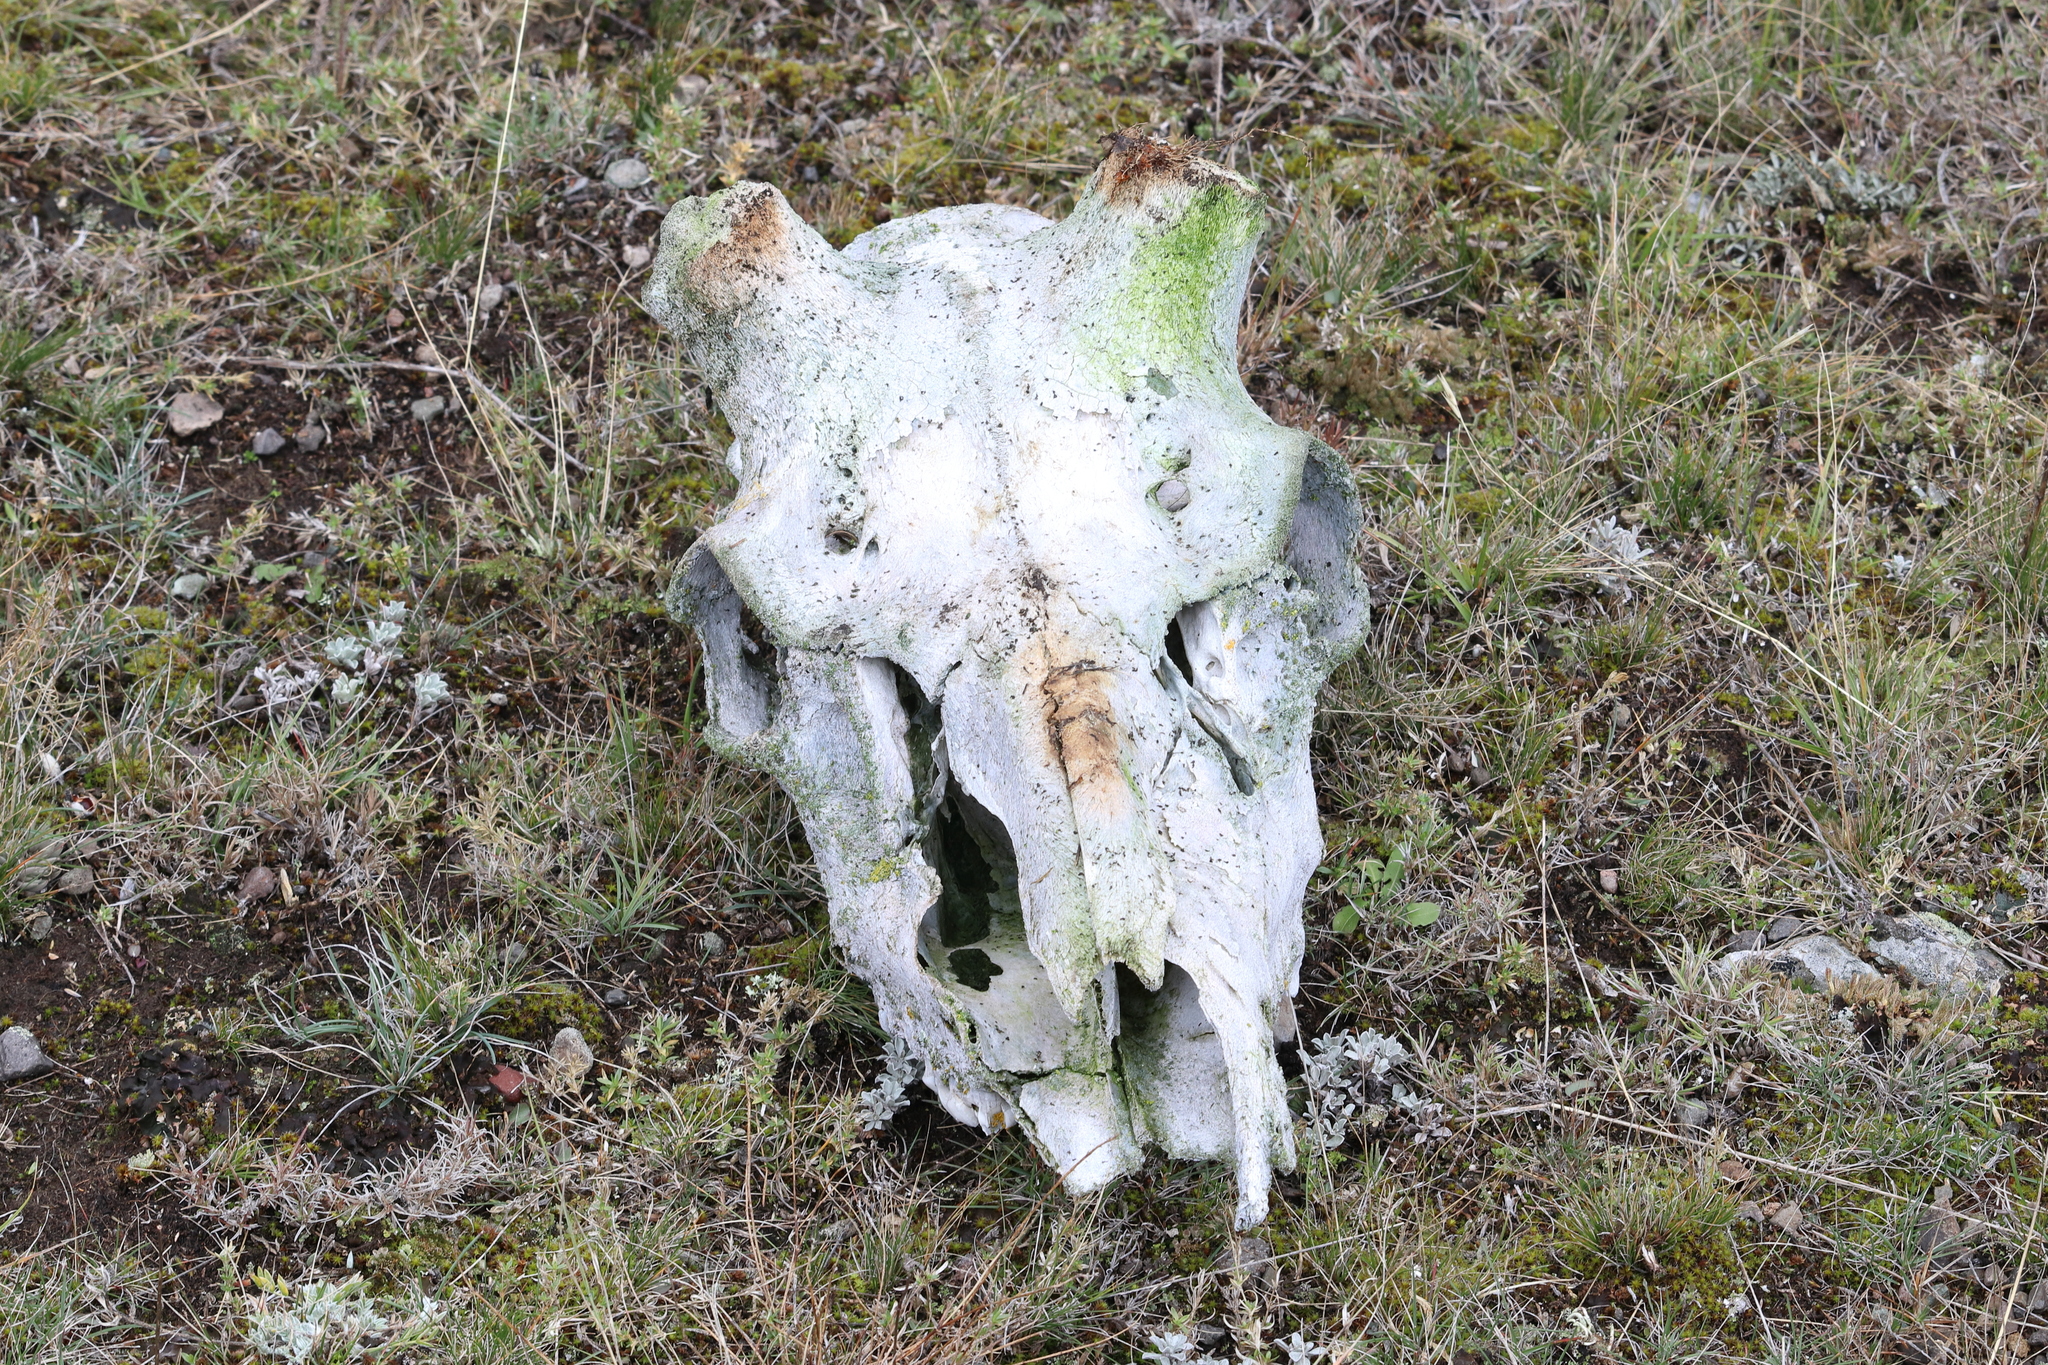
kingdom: Animalia
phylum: Chordata
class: Mammalia
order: Artiodactyla
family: Cervidae
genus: Odocoileus
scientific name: Odocoileus hemionus
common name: Mule deer
